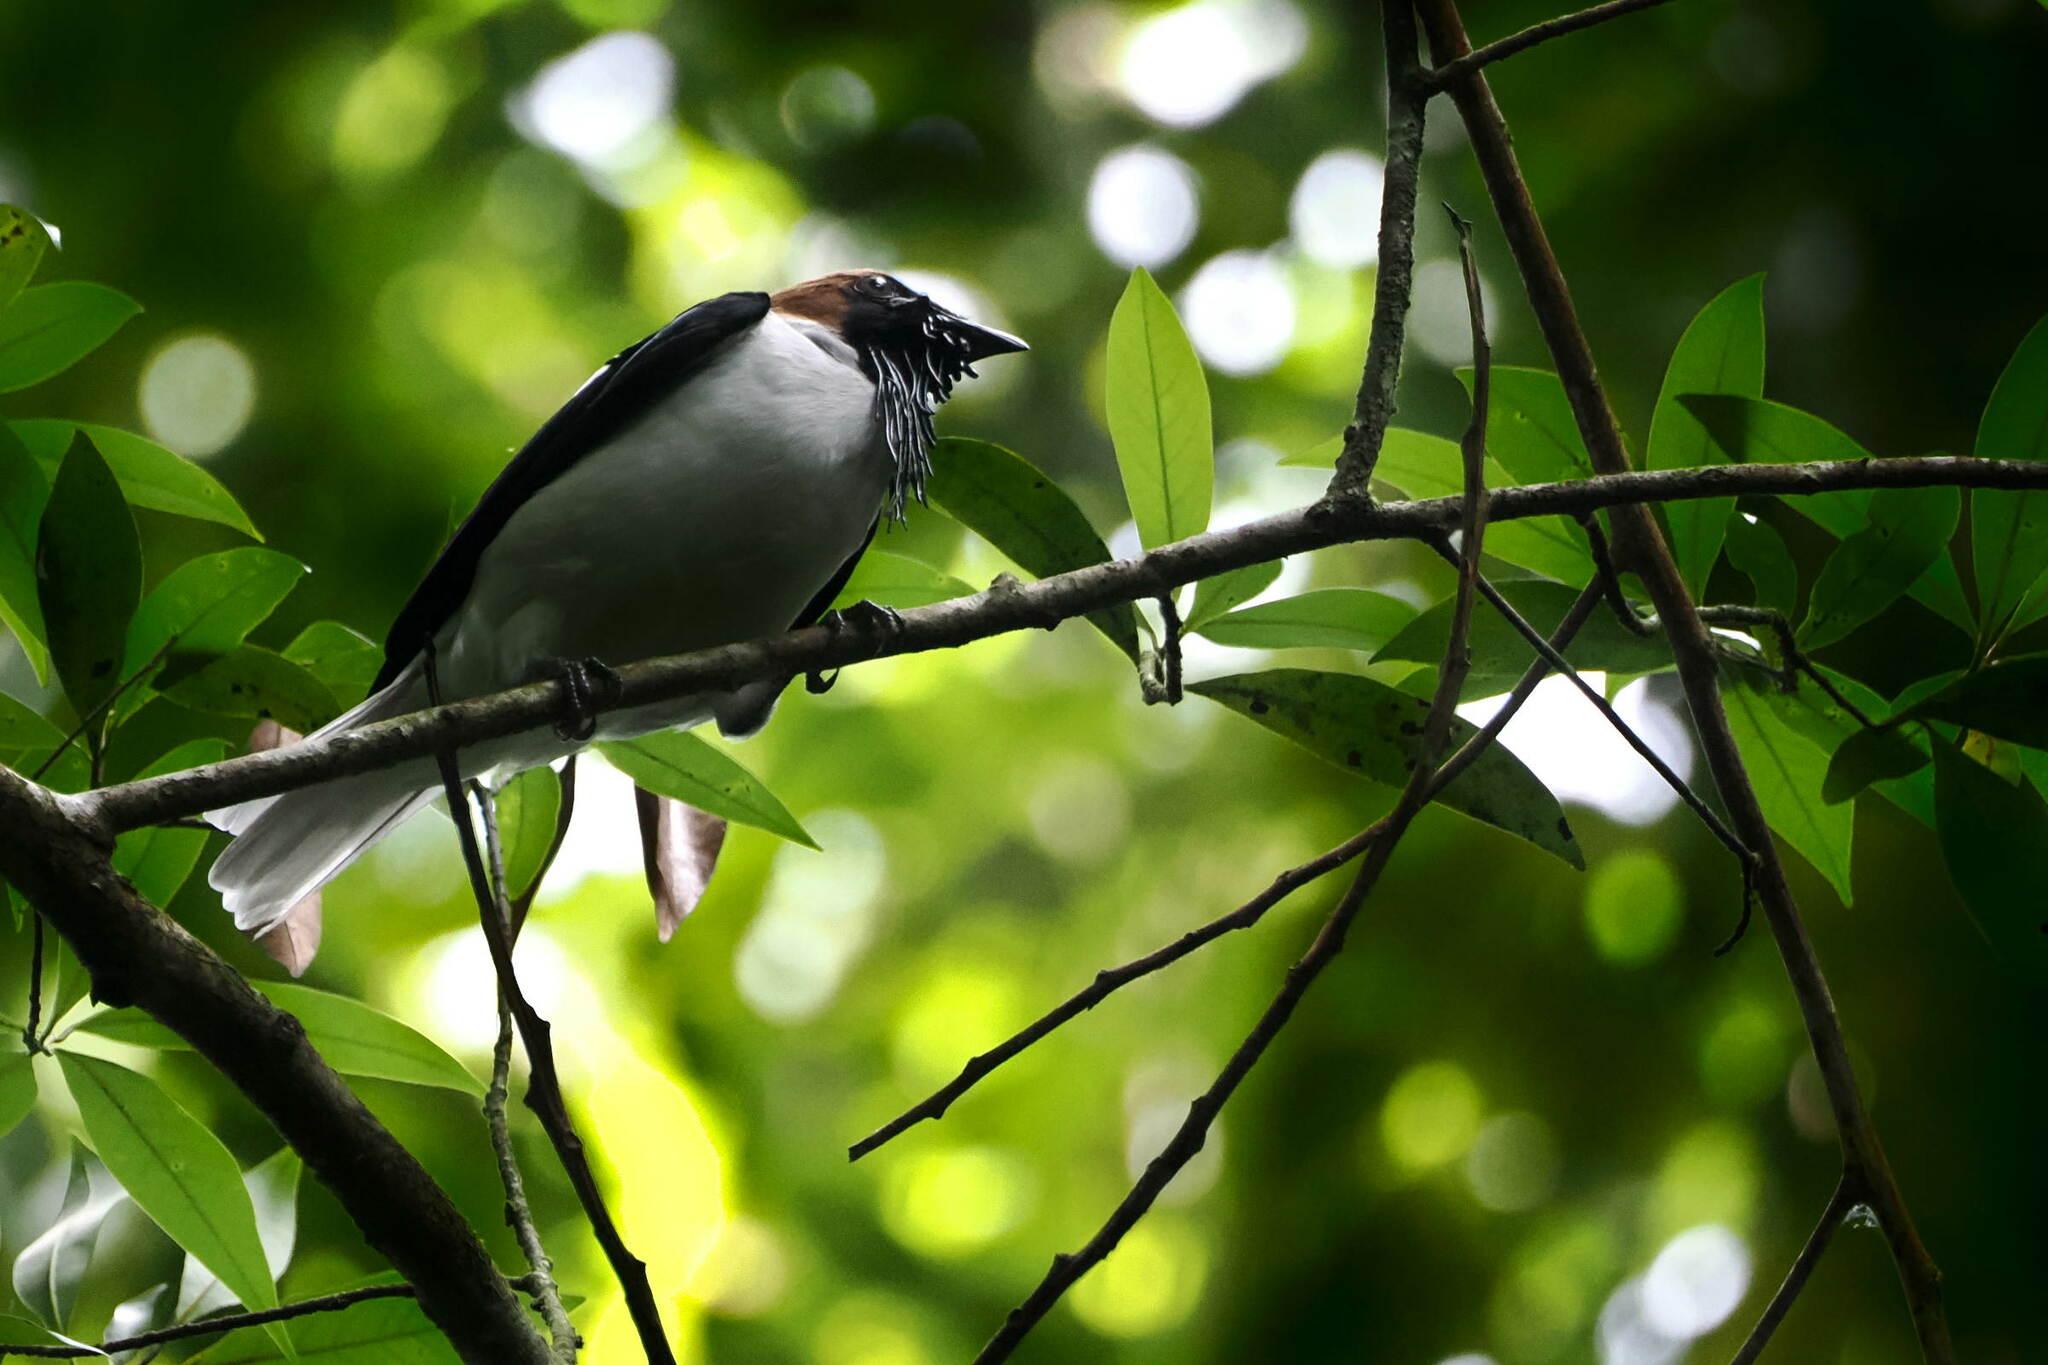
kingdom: Animalia
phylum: Chordata
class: Aves
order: Passeriformes
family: Cotingidae
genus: Procnias
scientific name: Procnias averano
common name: Bearded bellbird
